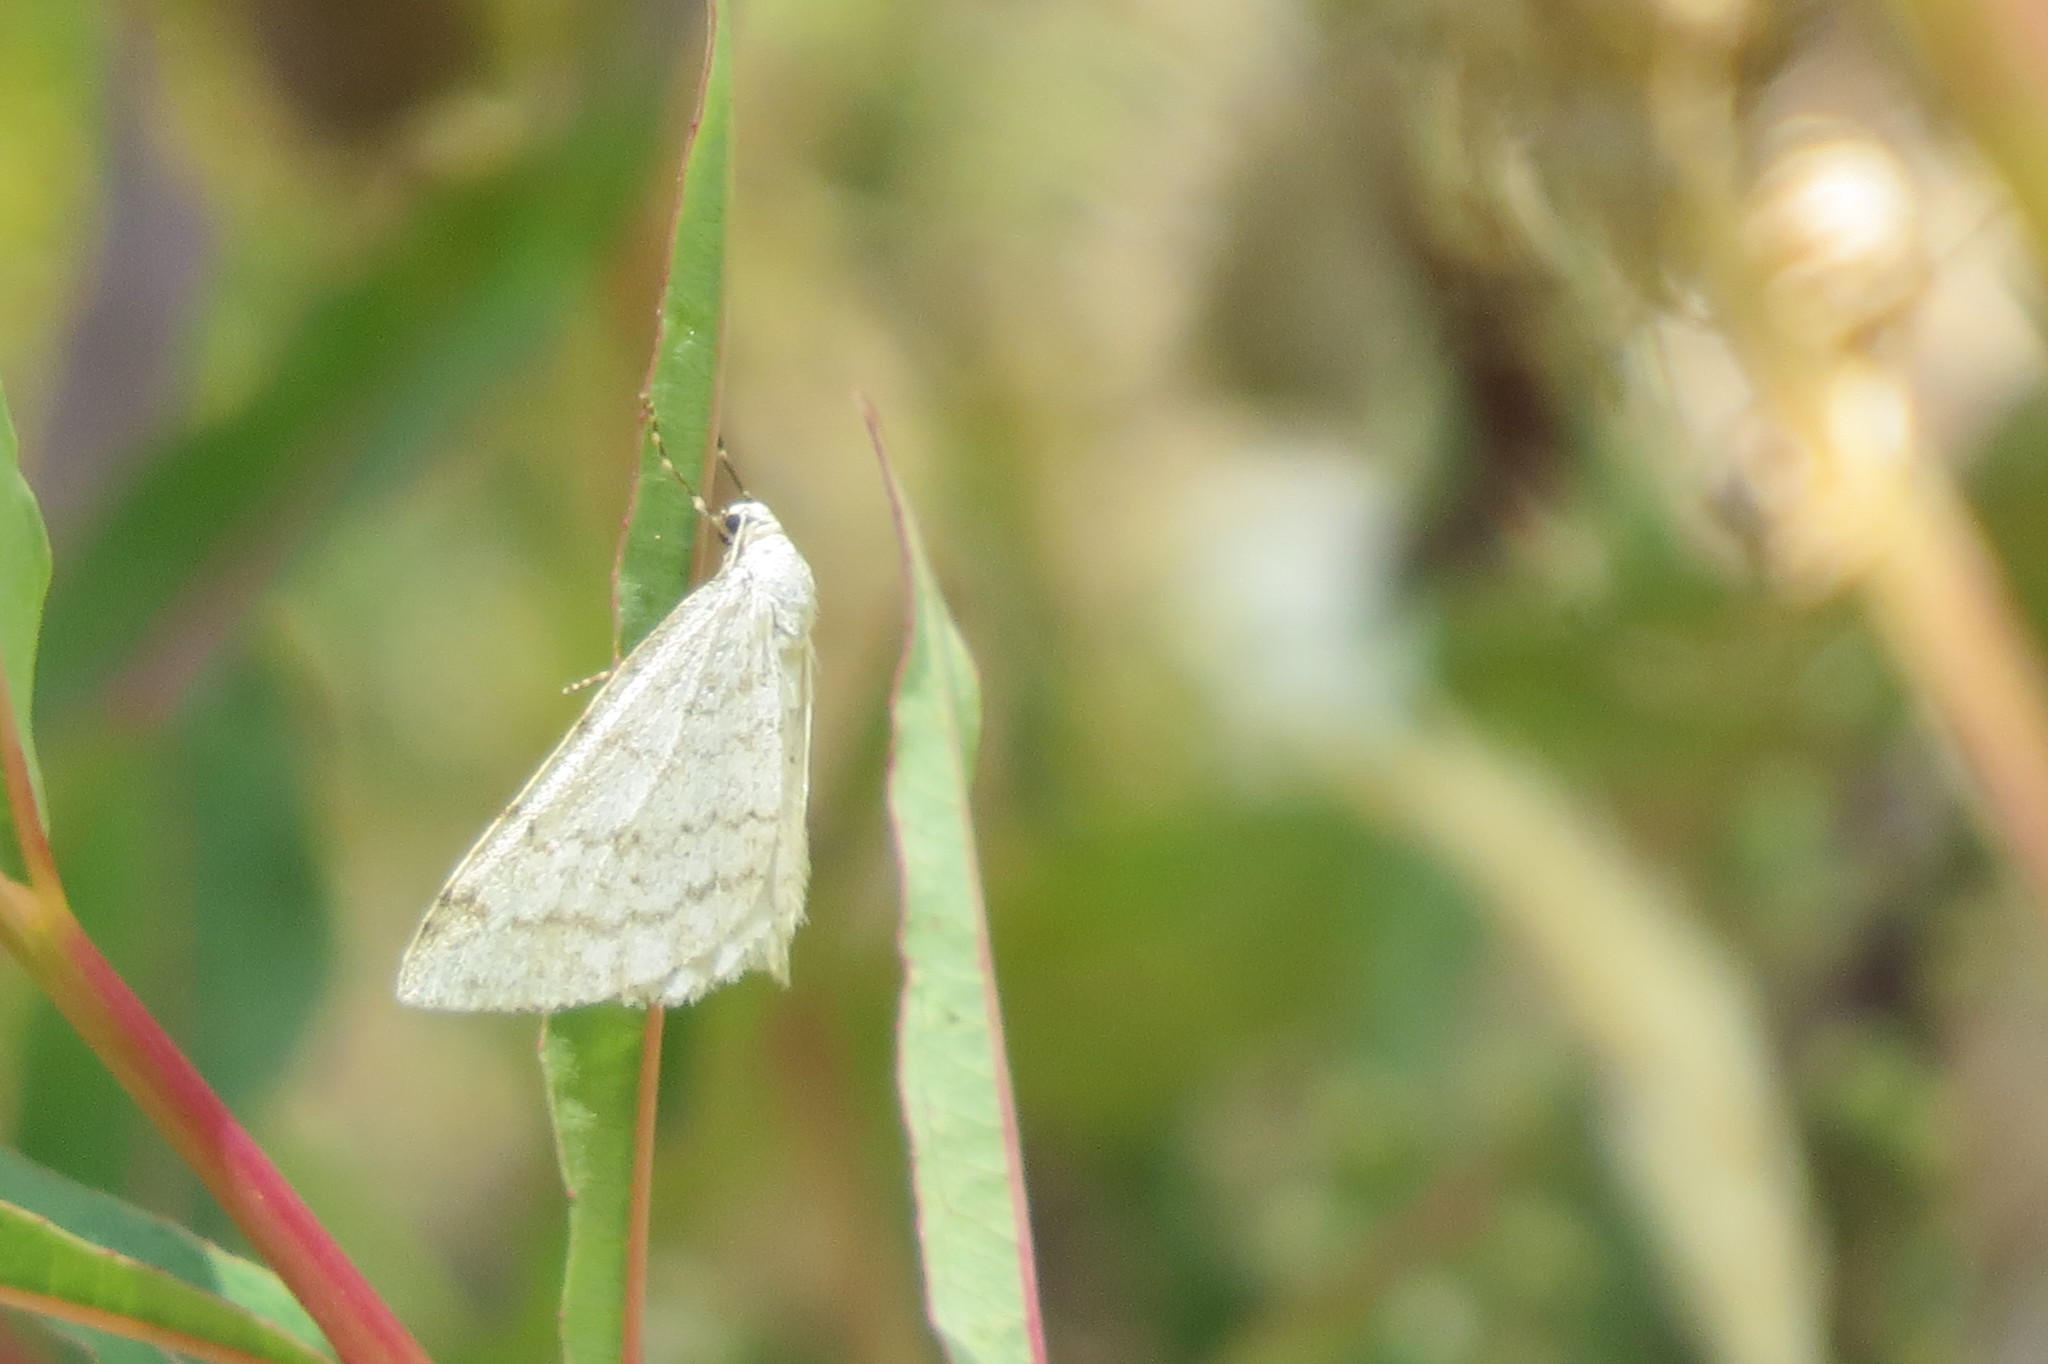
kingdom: Animalia
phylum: Arthropoda
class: Insecta
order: Lepidoptera
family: Geometridae
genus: Perizoma
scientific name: Perizoma verberata
